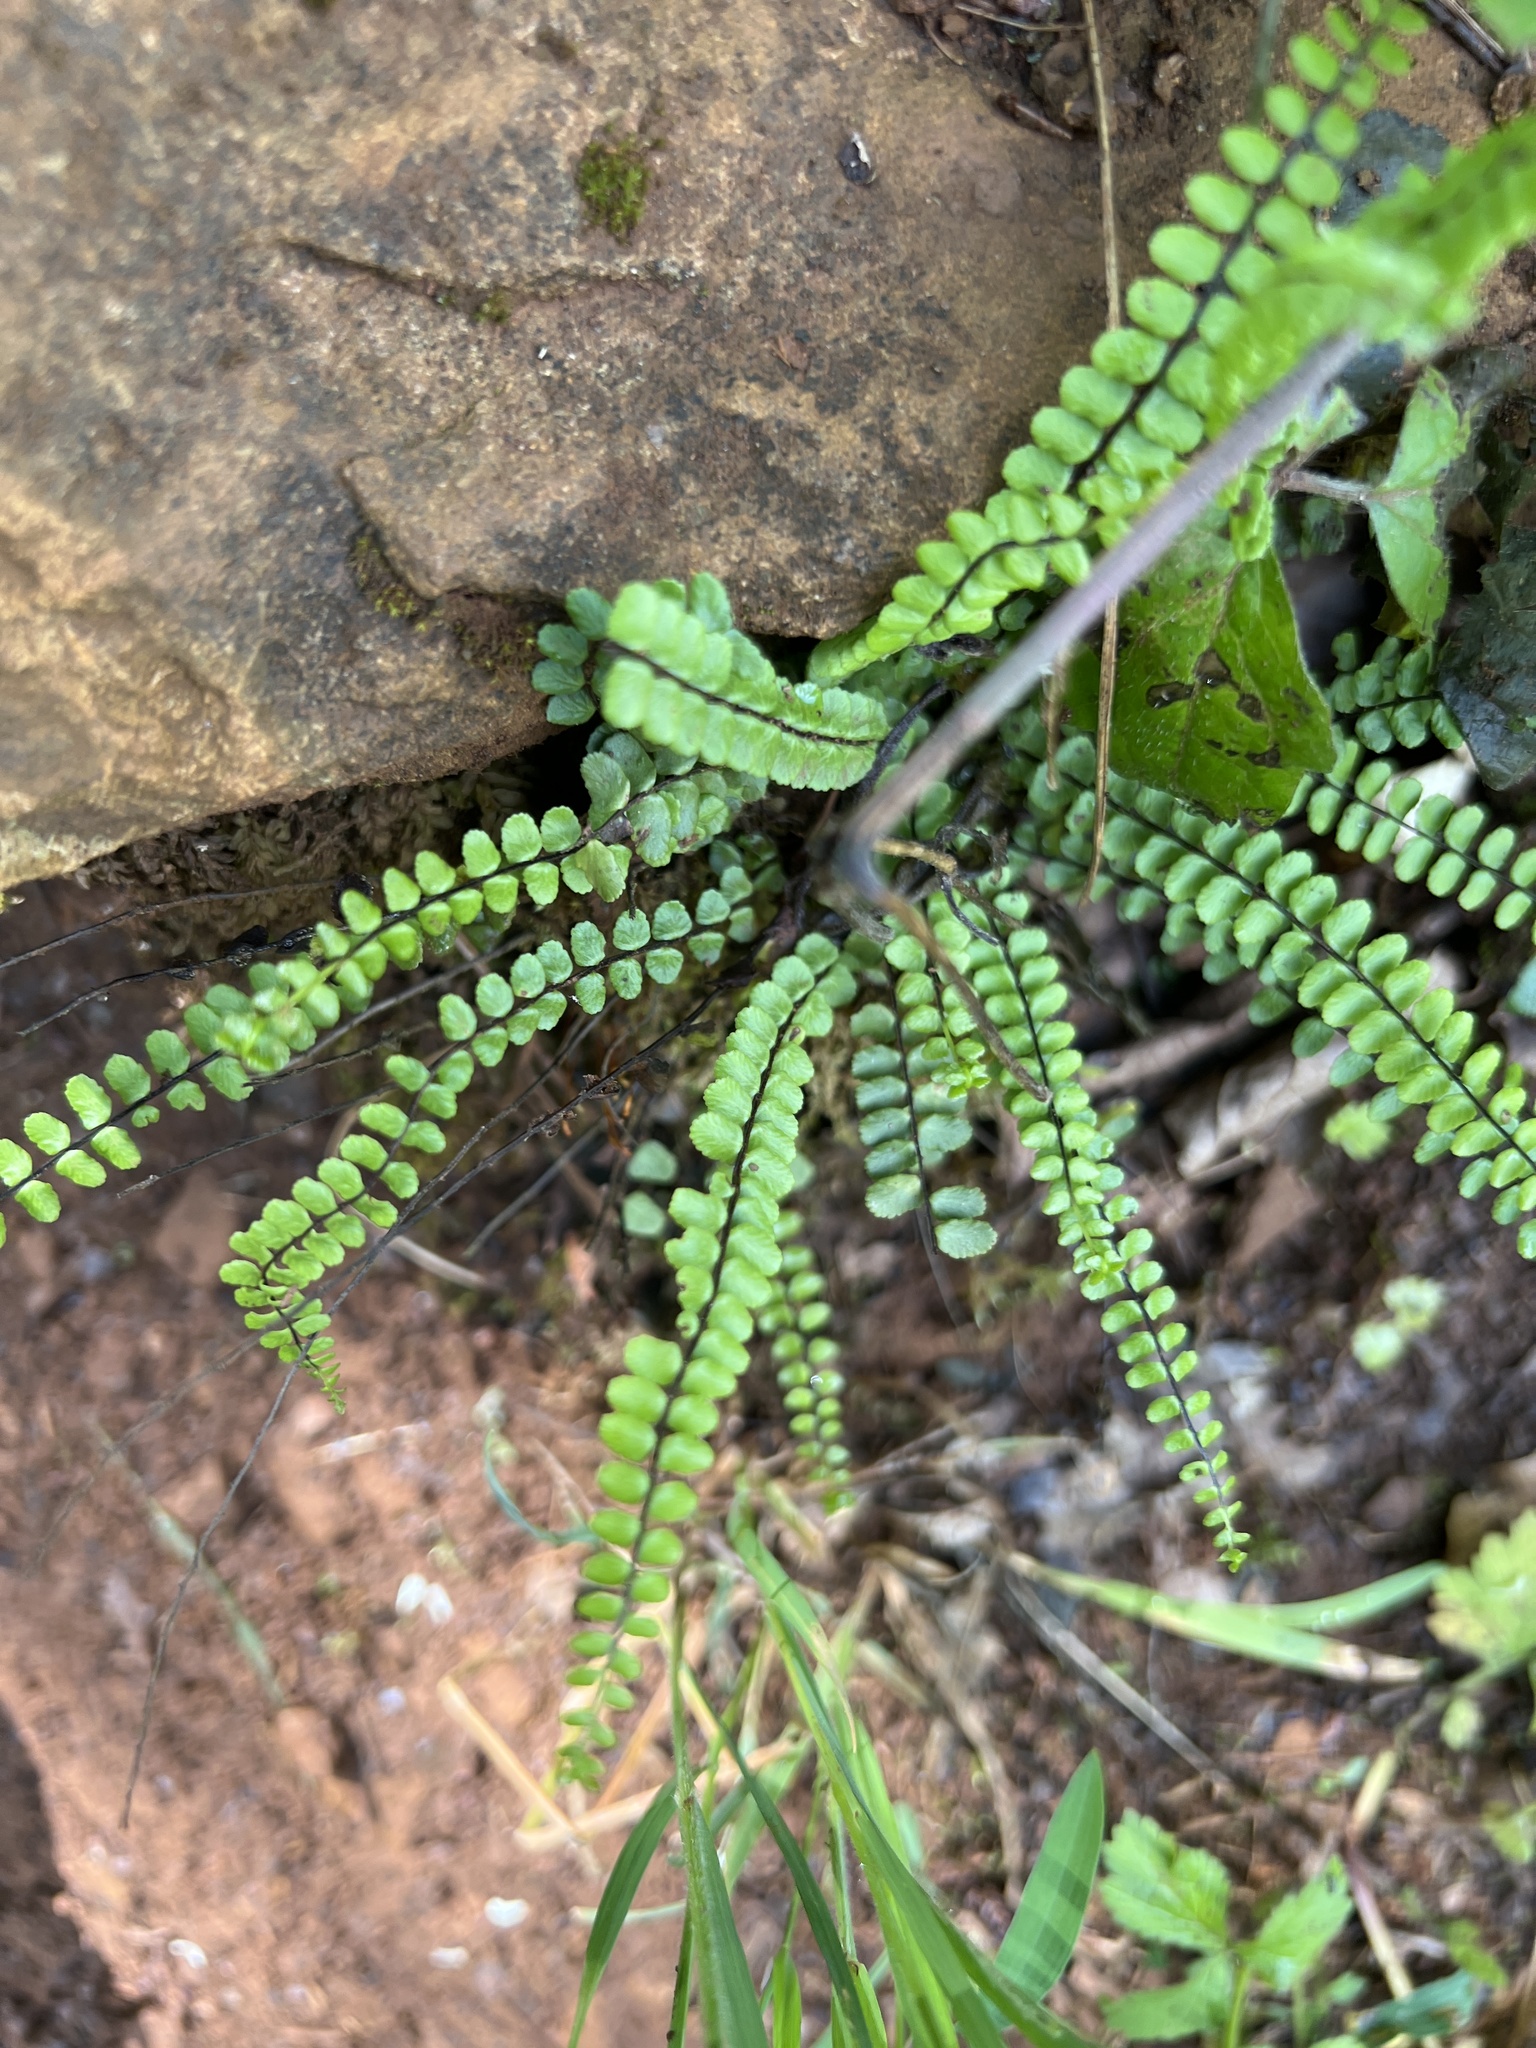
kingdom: Plantae
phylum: Tracheophyta
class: Polypodiopsida
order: Polypodiales
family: Aspleniaceae
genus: Asplenium
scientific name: Asplenium trichomanes
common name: Maidenhair spleenwort
